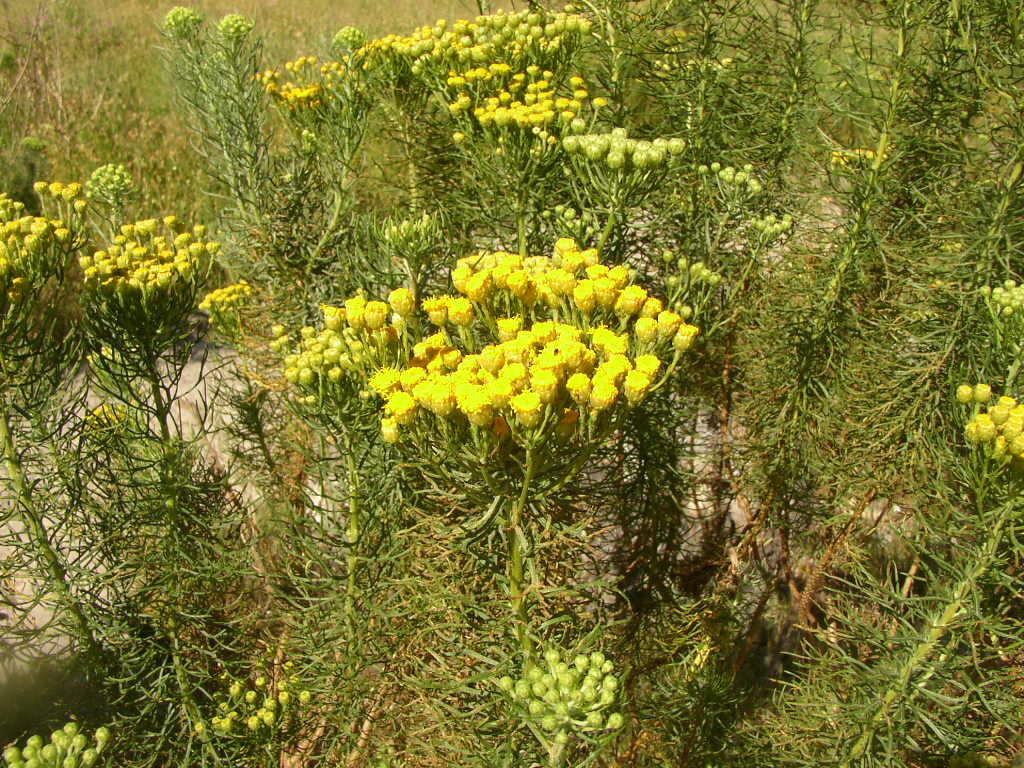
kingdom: Plantae
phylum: Tracheophyta
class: Magnoliopsida
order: Asterales
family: Asteraceae
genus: Athanasia
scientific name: Athanasia crithmifolia
